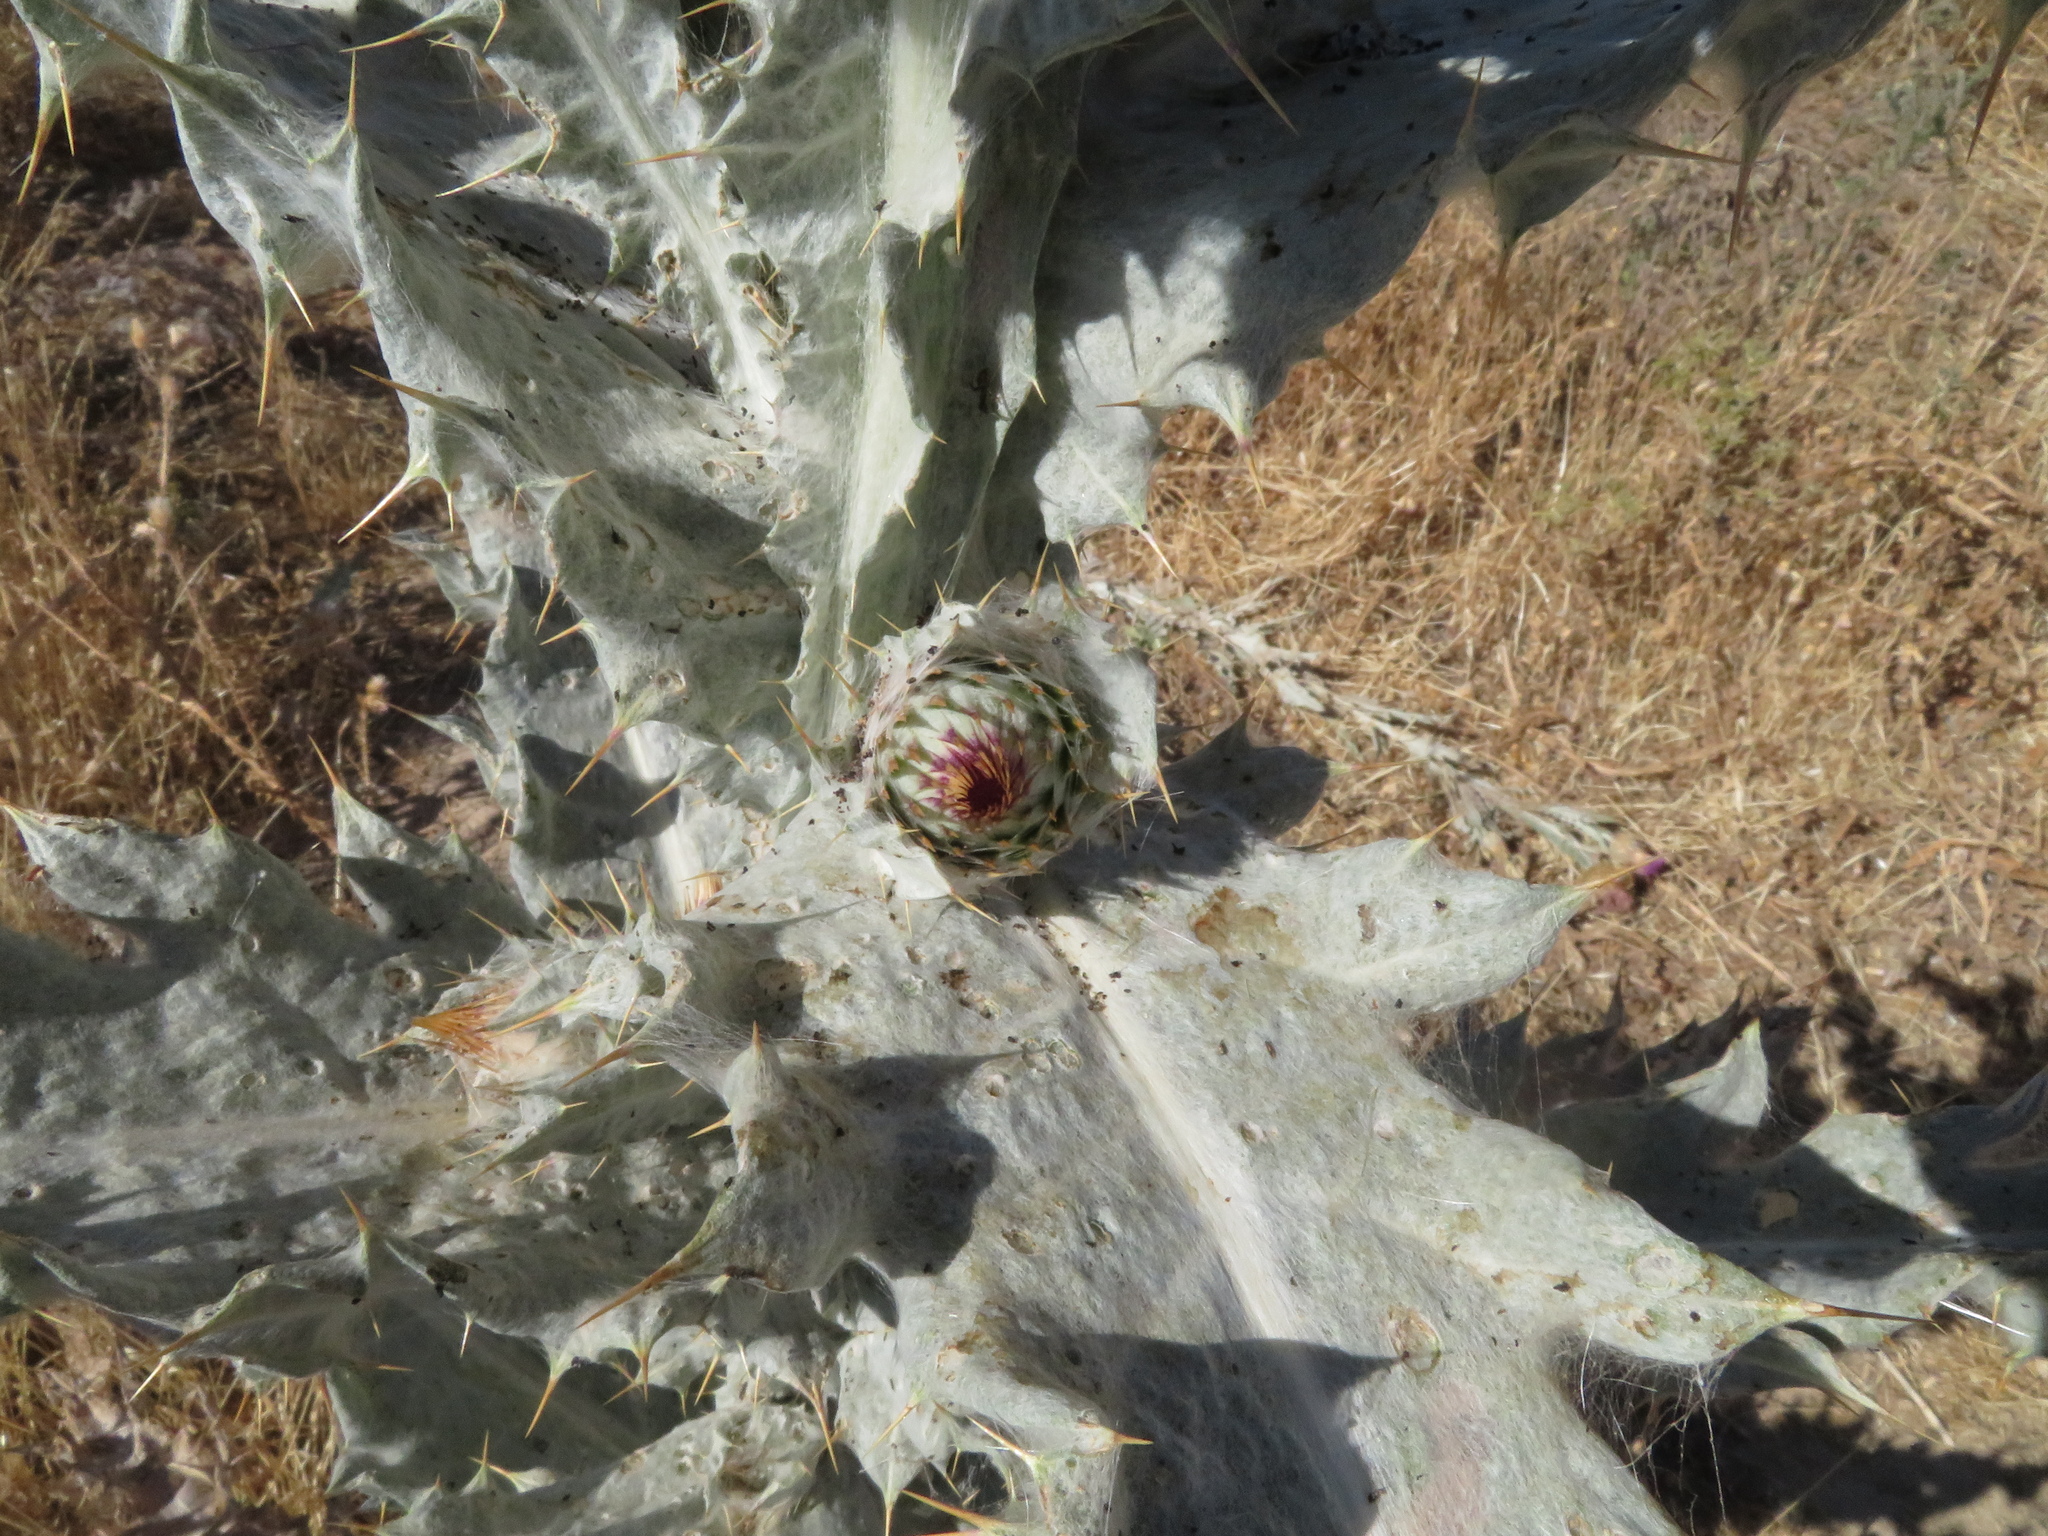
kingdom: Plantae
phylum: Tracheophyta
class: Magnoliopsida
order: Asterales
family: Asteraceae
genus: Onopordum
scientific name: Onopordum nervosum
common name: Reticulate thistle
